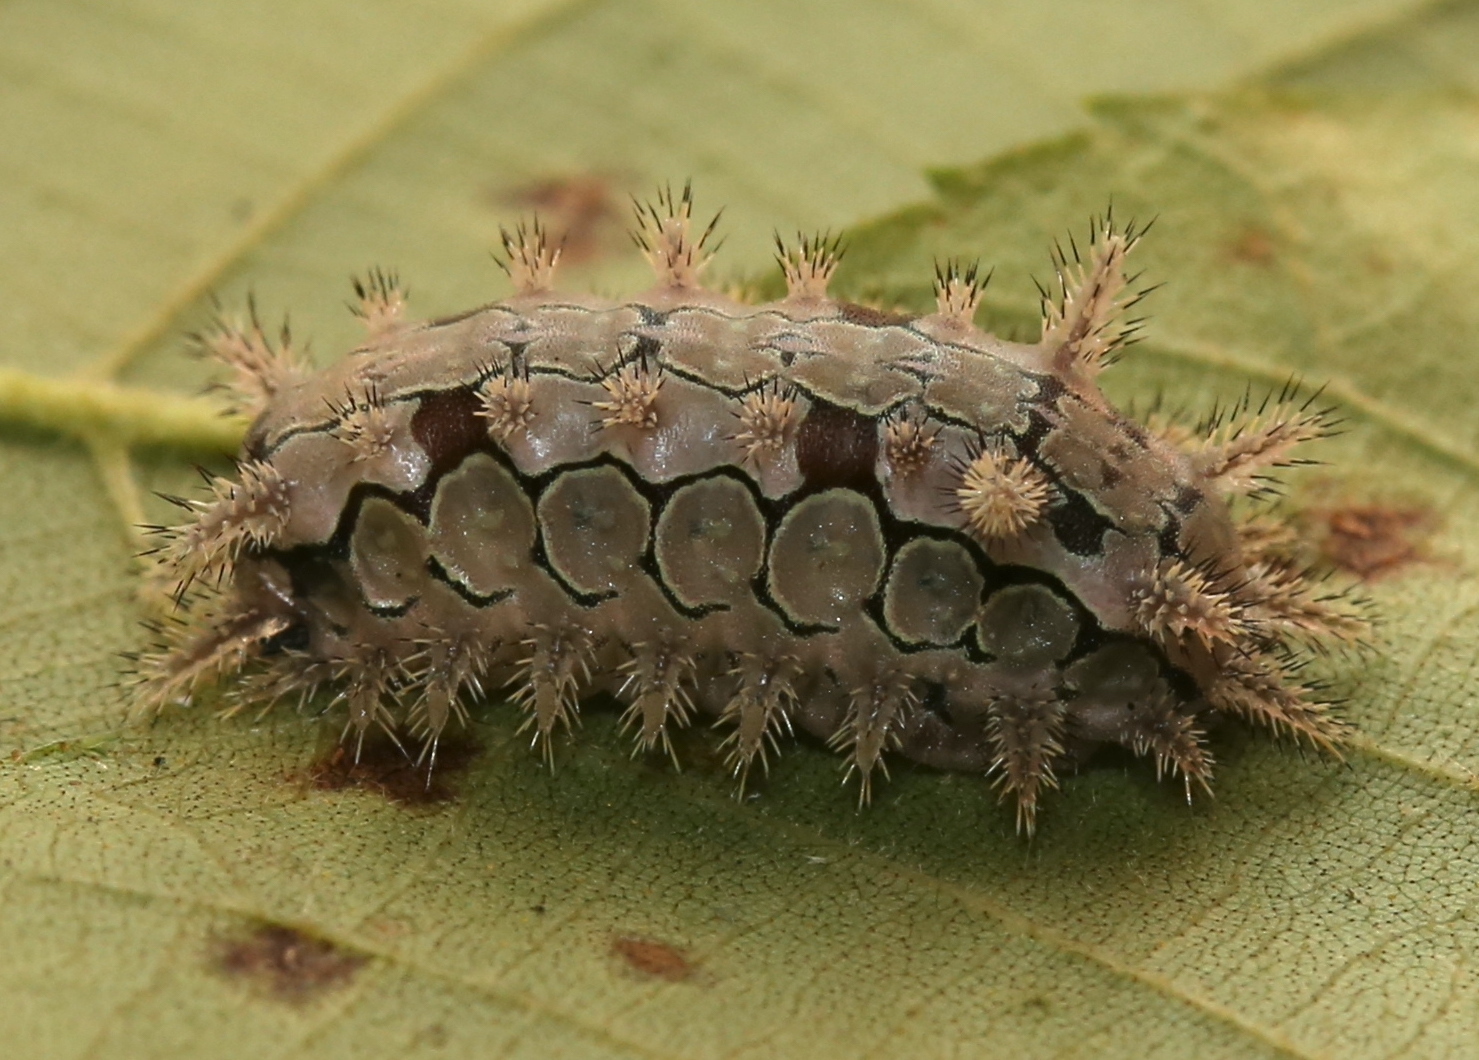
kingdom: Animalia
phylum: Arthropoda
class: Insecta
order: Lepidoptera
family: Limacodidae
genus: Euclea
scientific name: Euclea delphinii
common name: Spiny oak-slug moth
